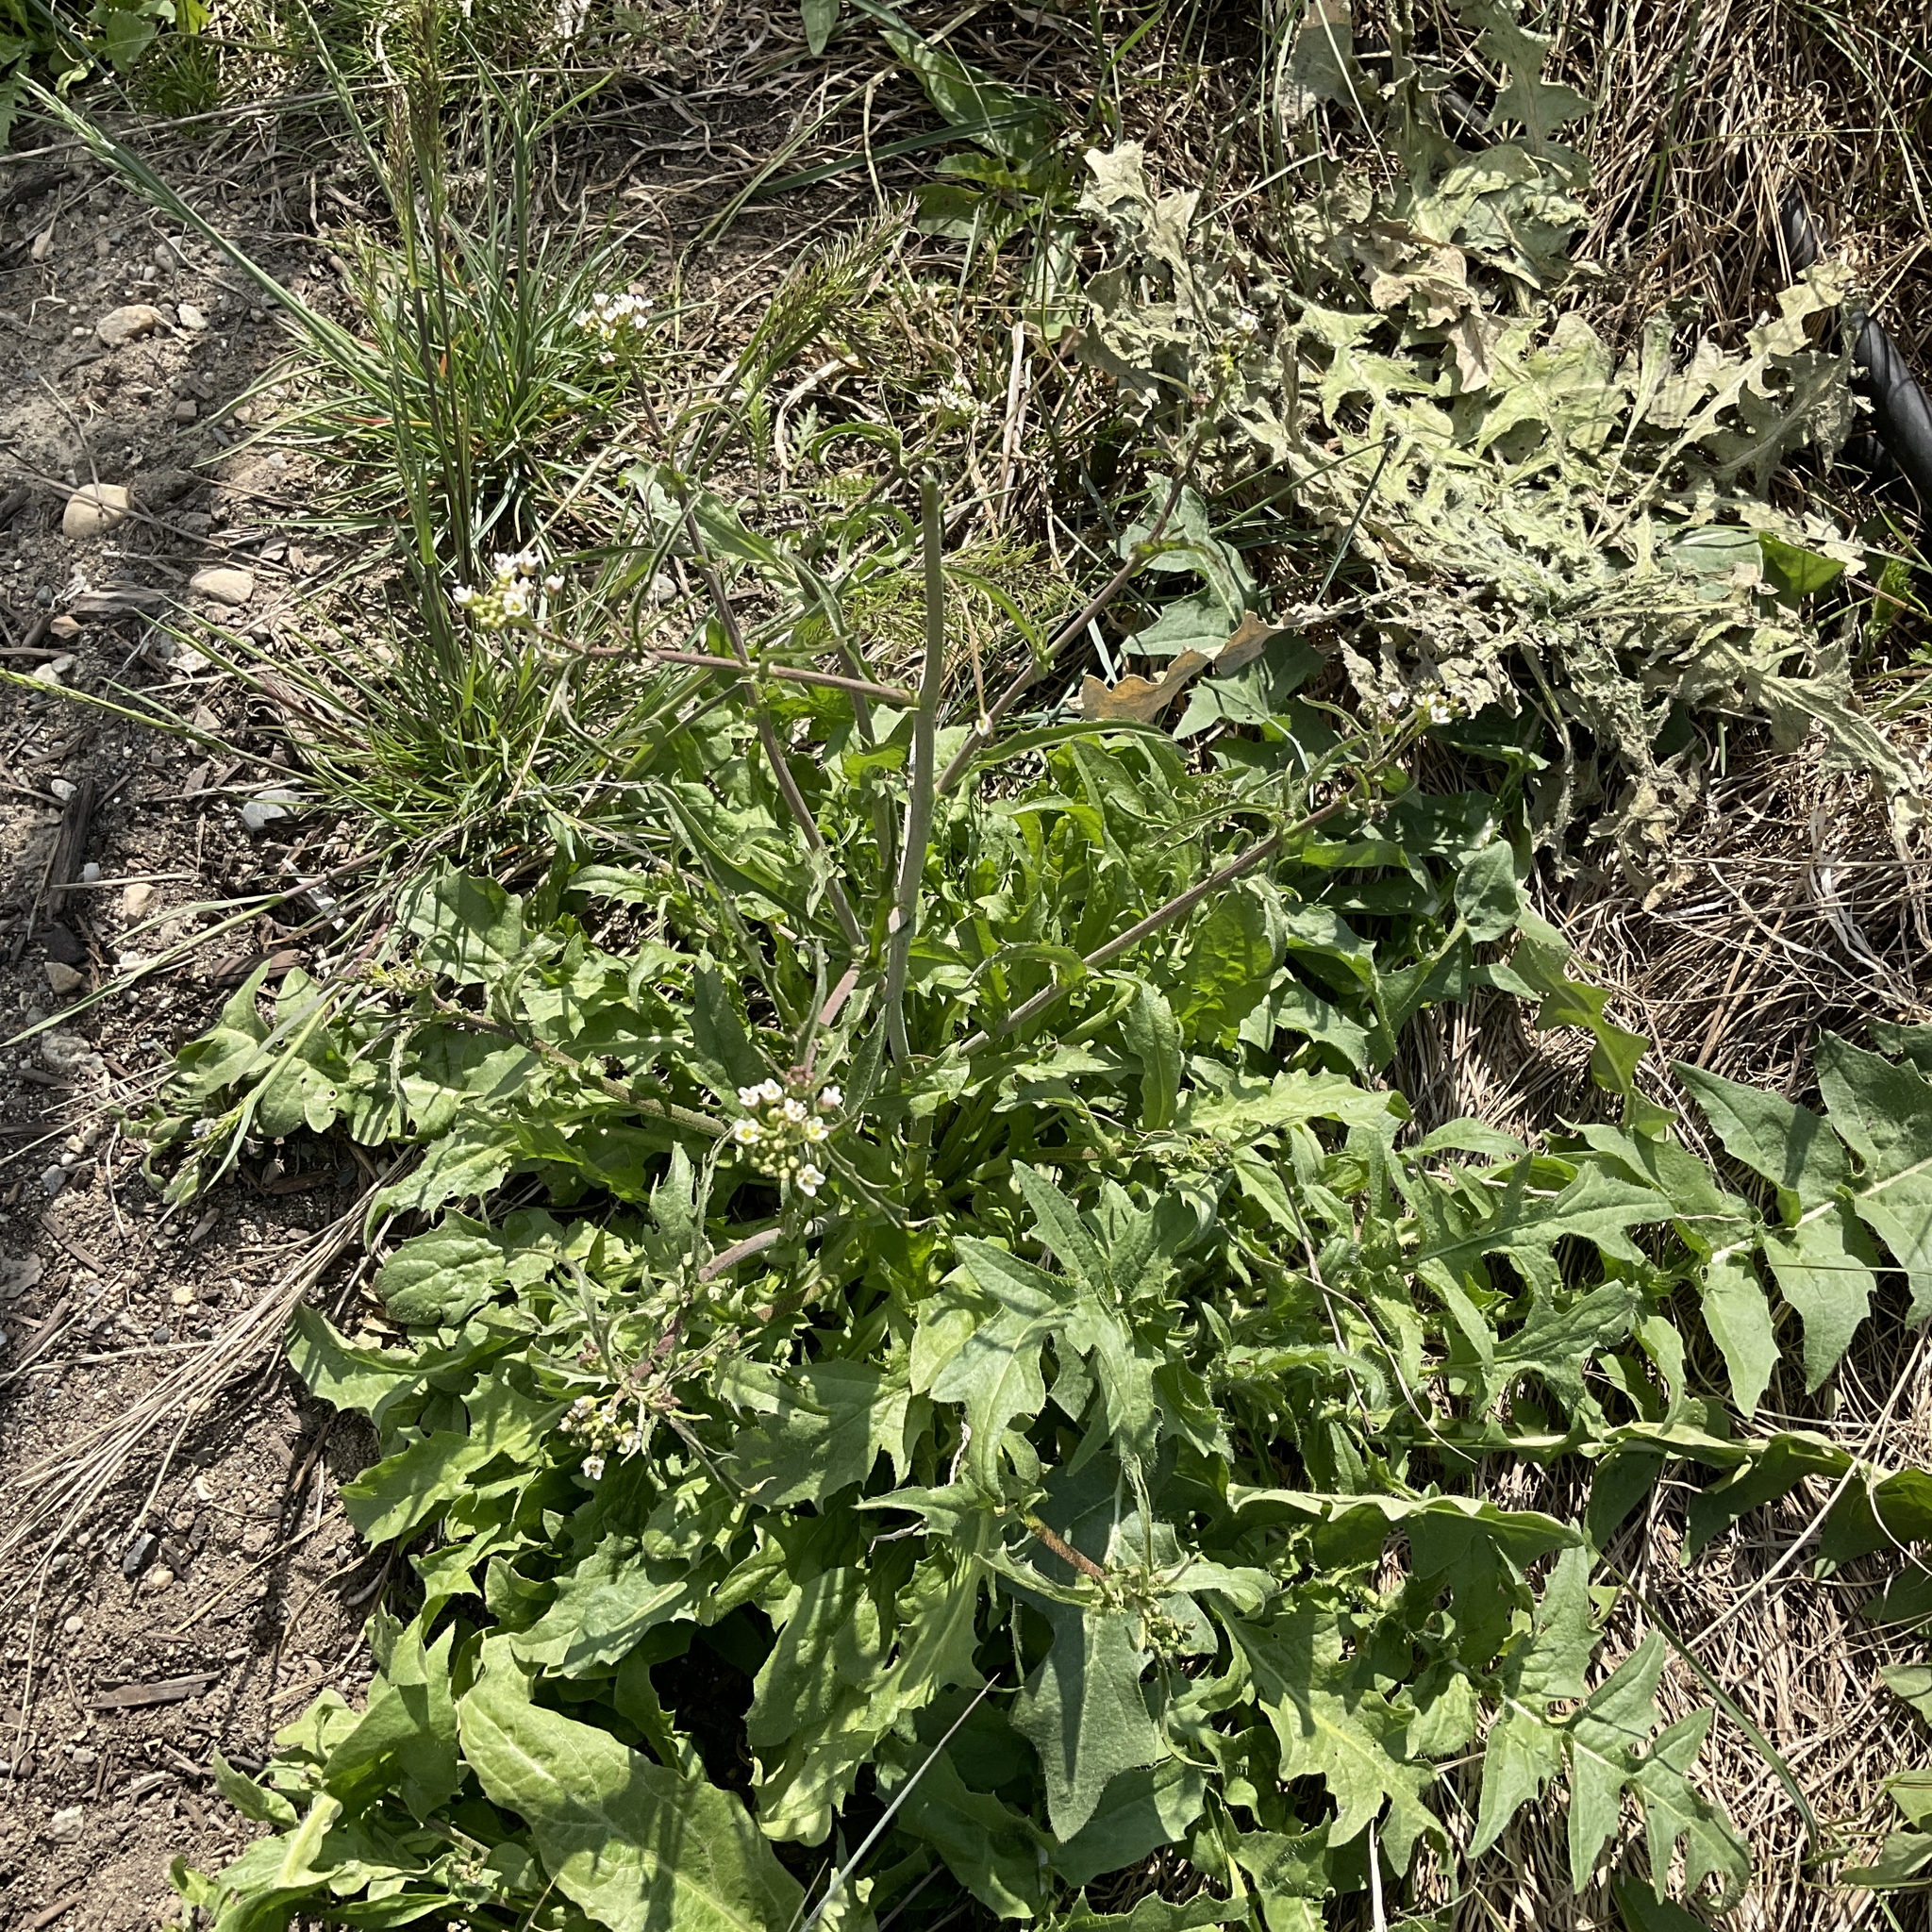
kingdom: Plantae
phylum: Tracheophyta
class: Magnoliopsida
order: Brassicales
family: Brassicaceae
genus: Sisymbrium
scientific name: Sisymbrium altissimum
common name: Tall rocket
